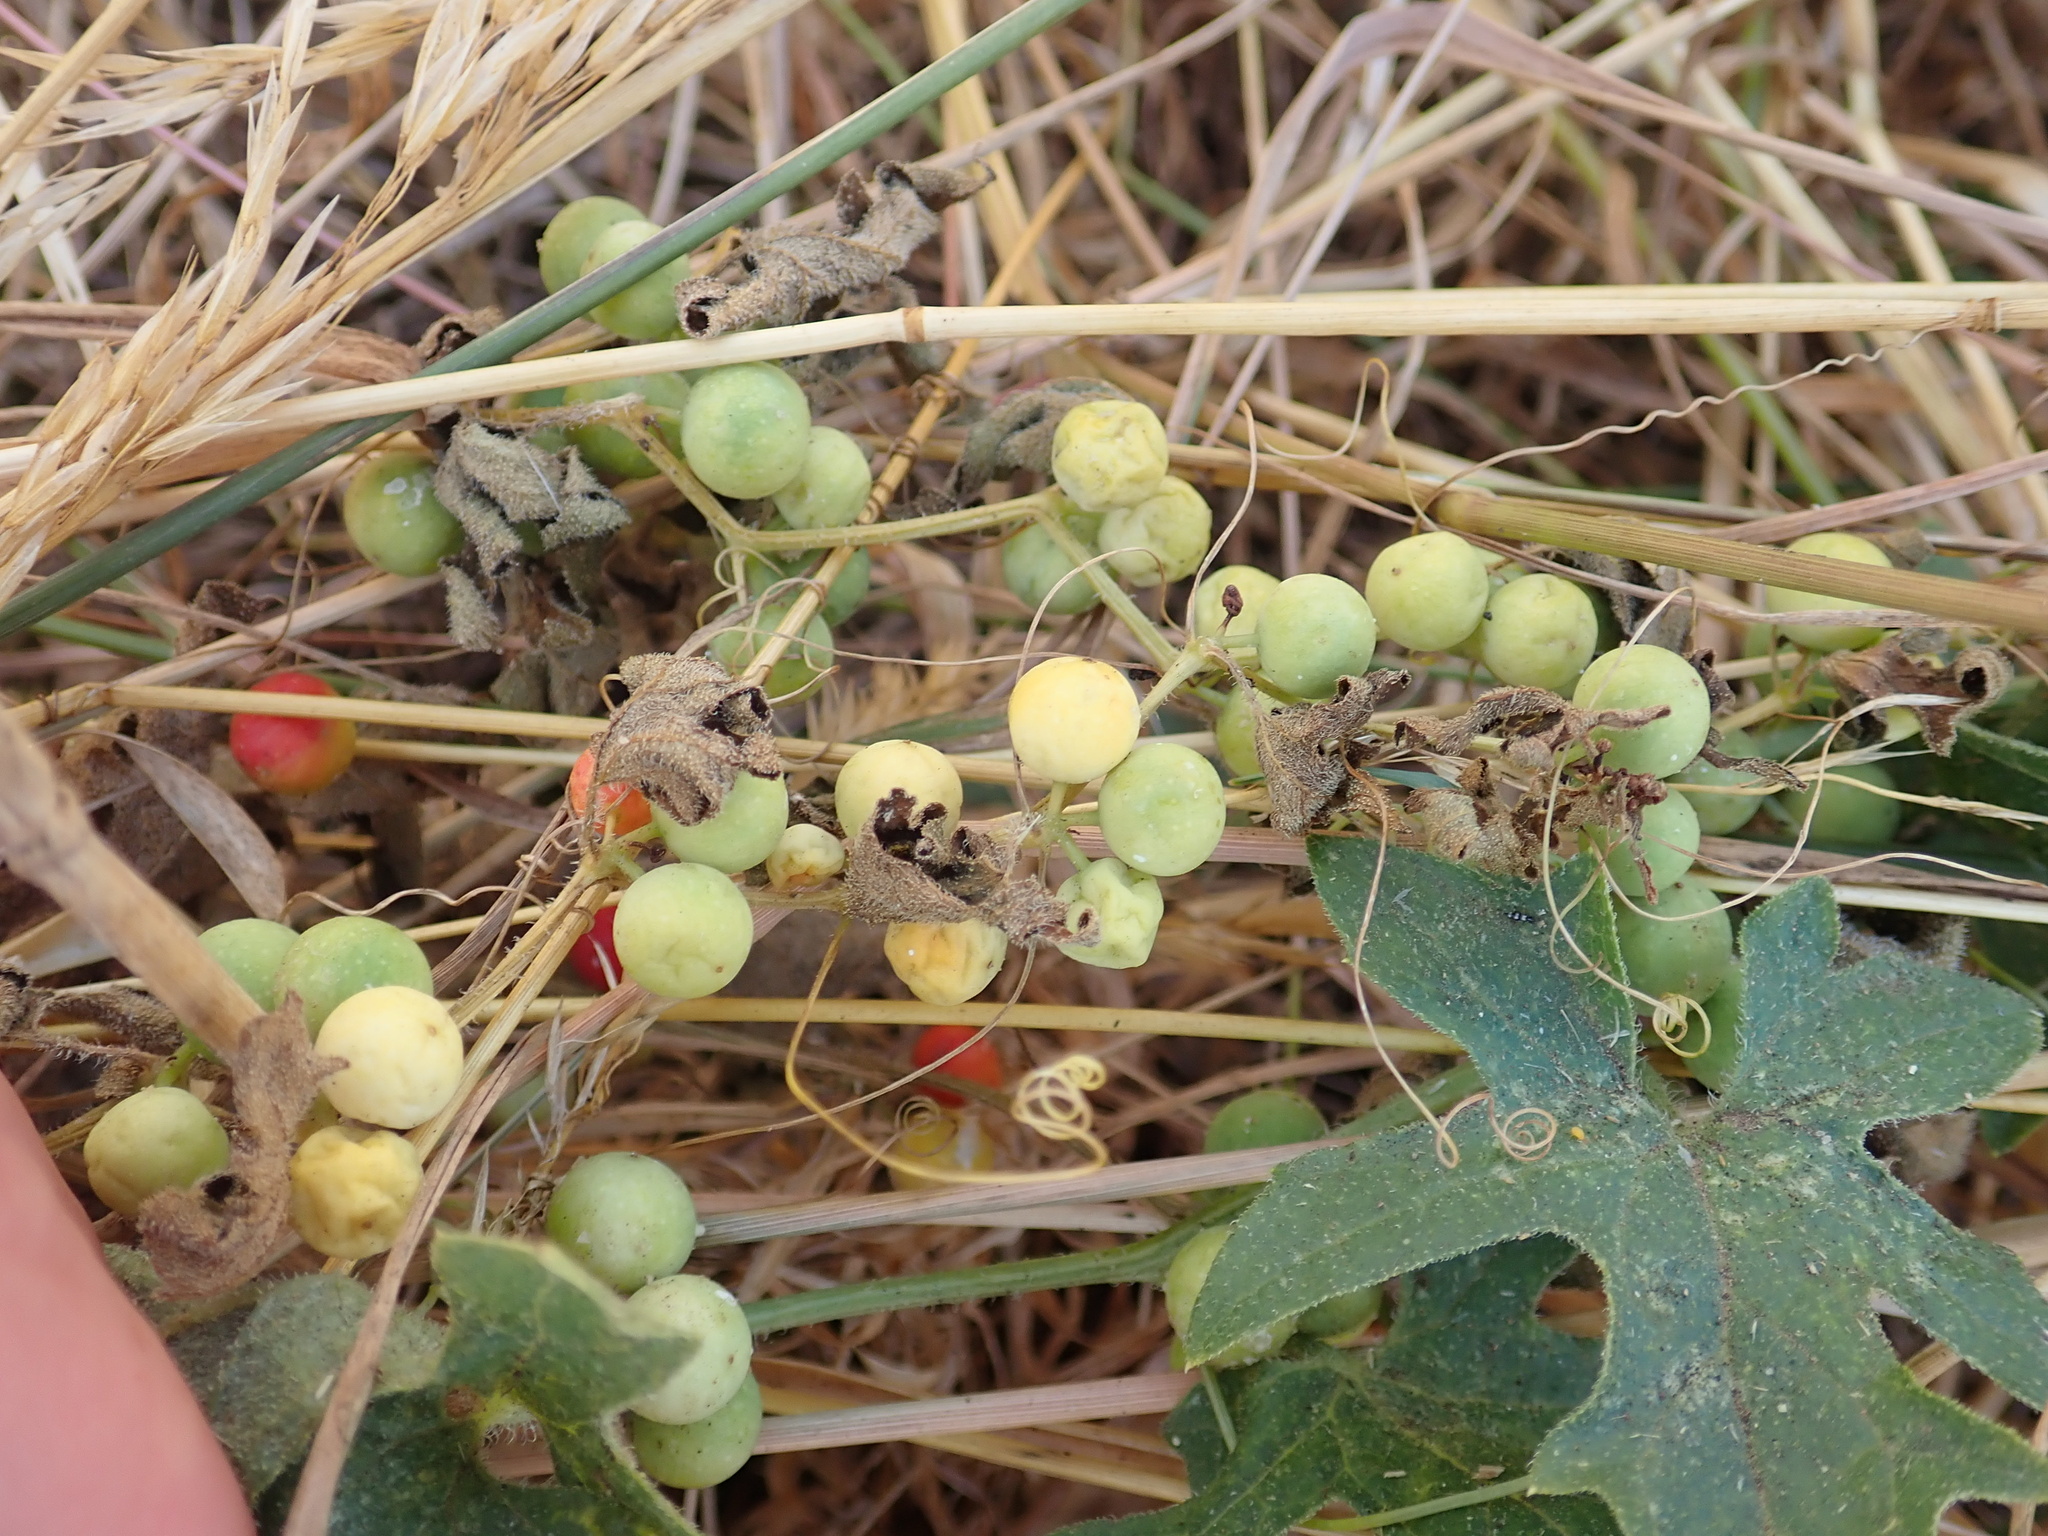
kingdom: Plantae
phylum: Tracheophyta
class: Magnoliopsida
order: Cucurbitales
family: Cucurbitaceae
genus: Bryonia
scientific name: Bryonia cretica
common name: Cretan bryony
